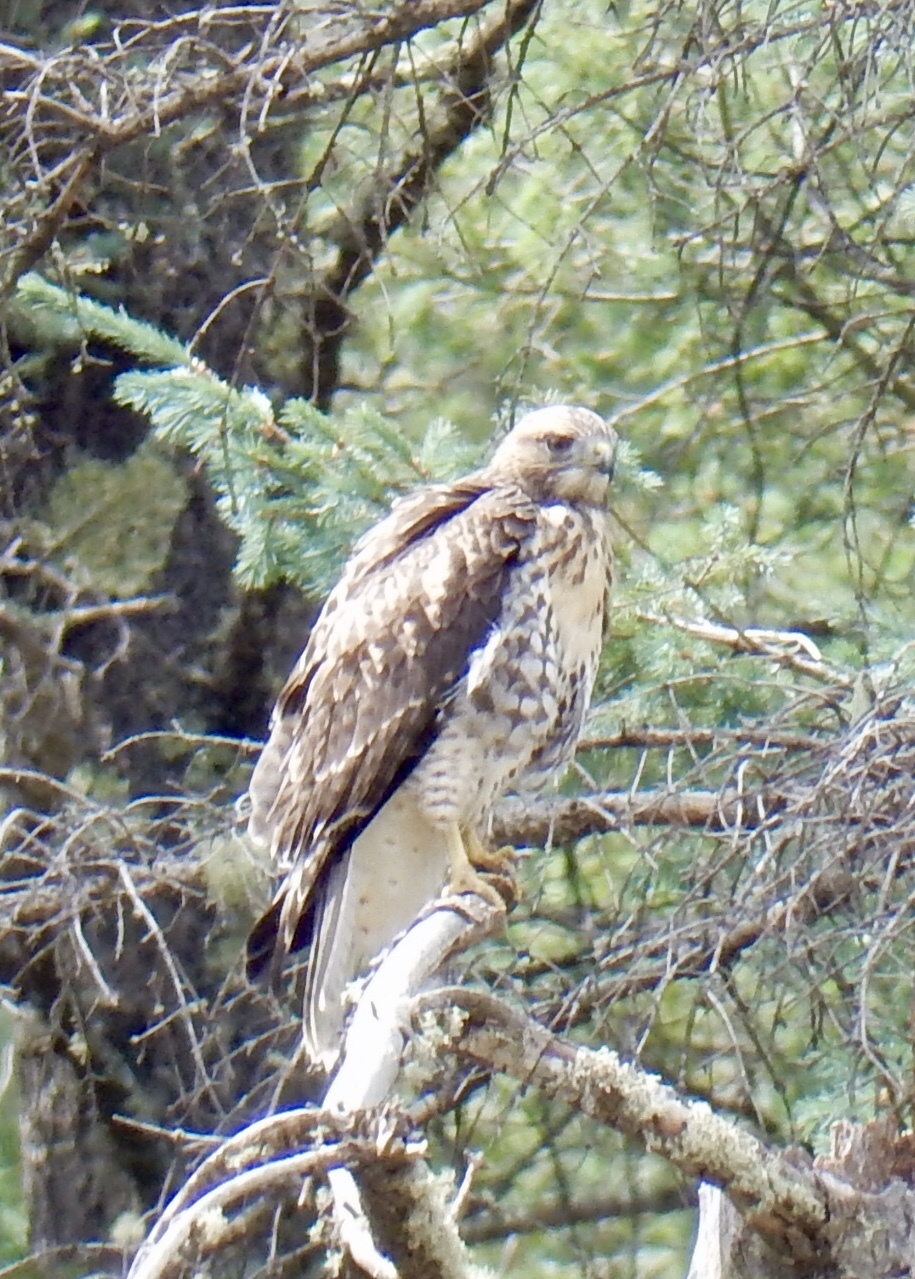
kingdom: Animalia
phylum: Chordata
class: Aves
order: Accipitriformes
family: Accipitridae
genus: Buteo
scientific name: Buteo jamaicensis
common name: Red-tailed hawk
